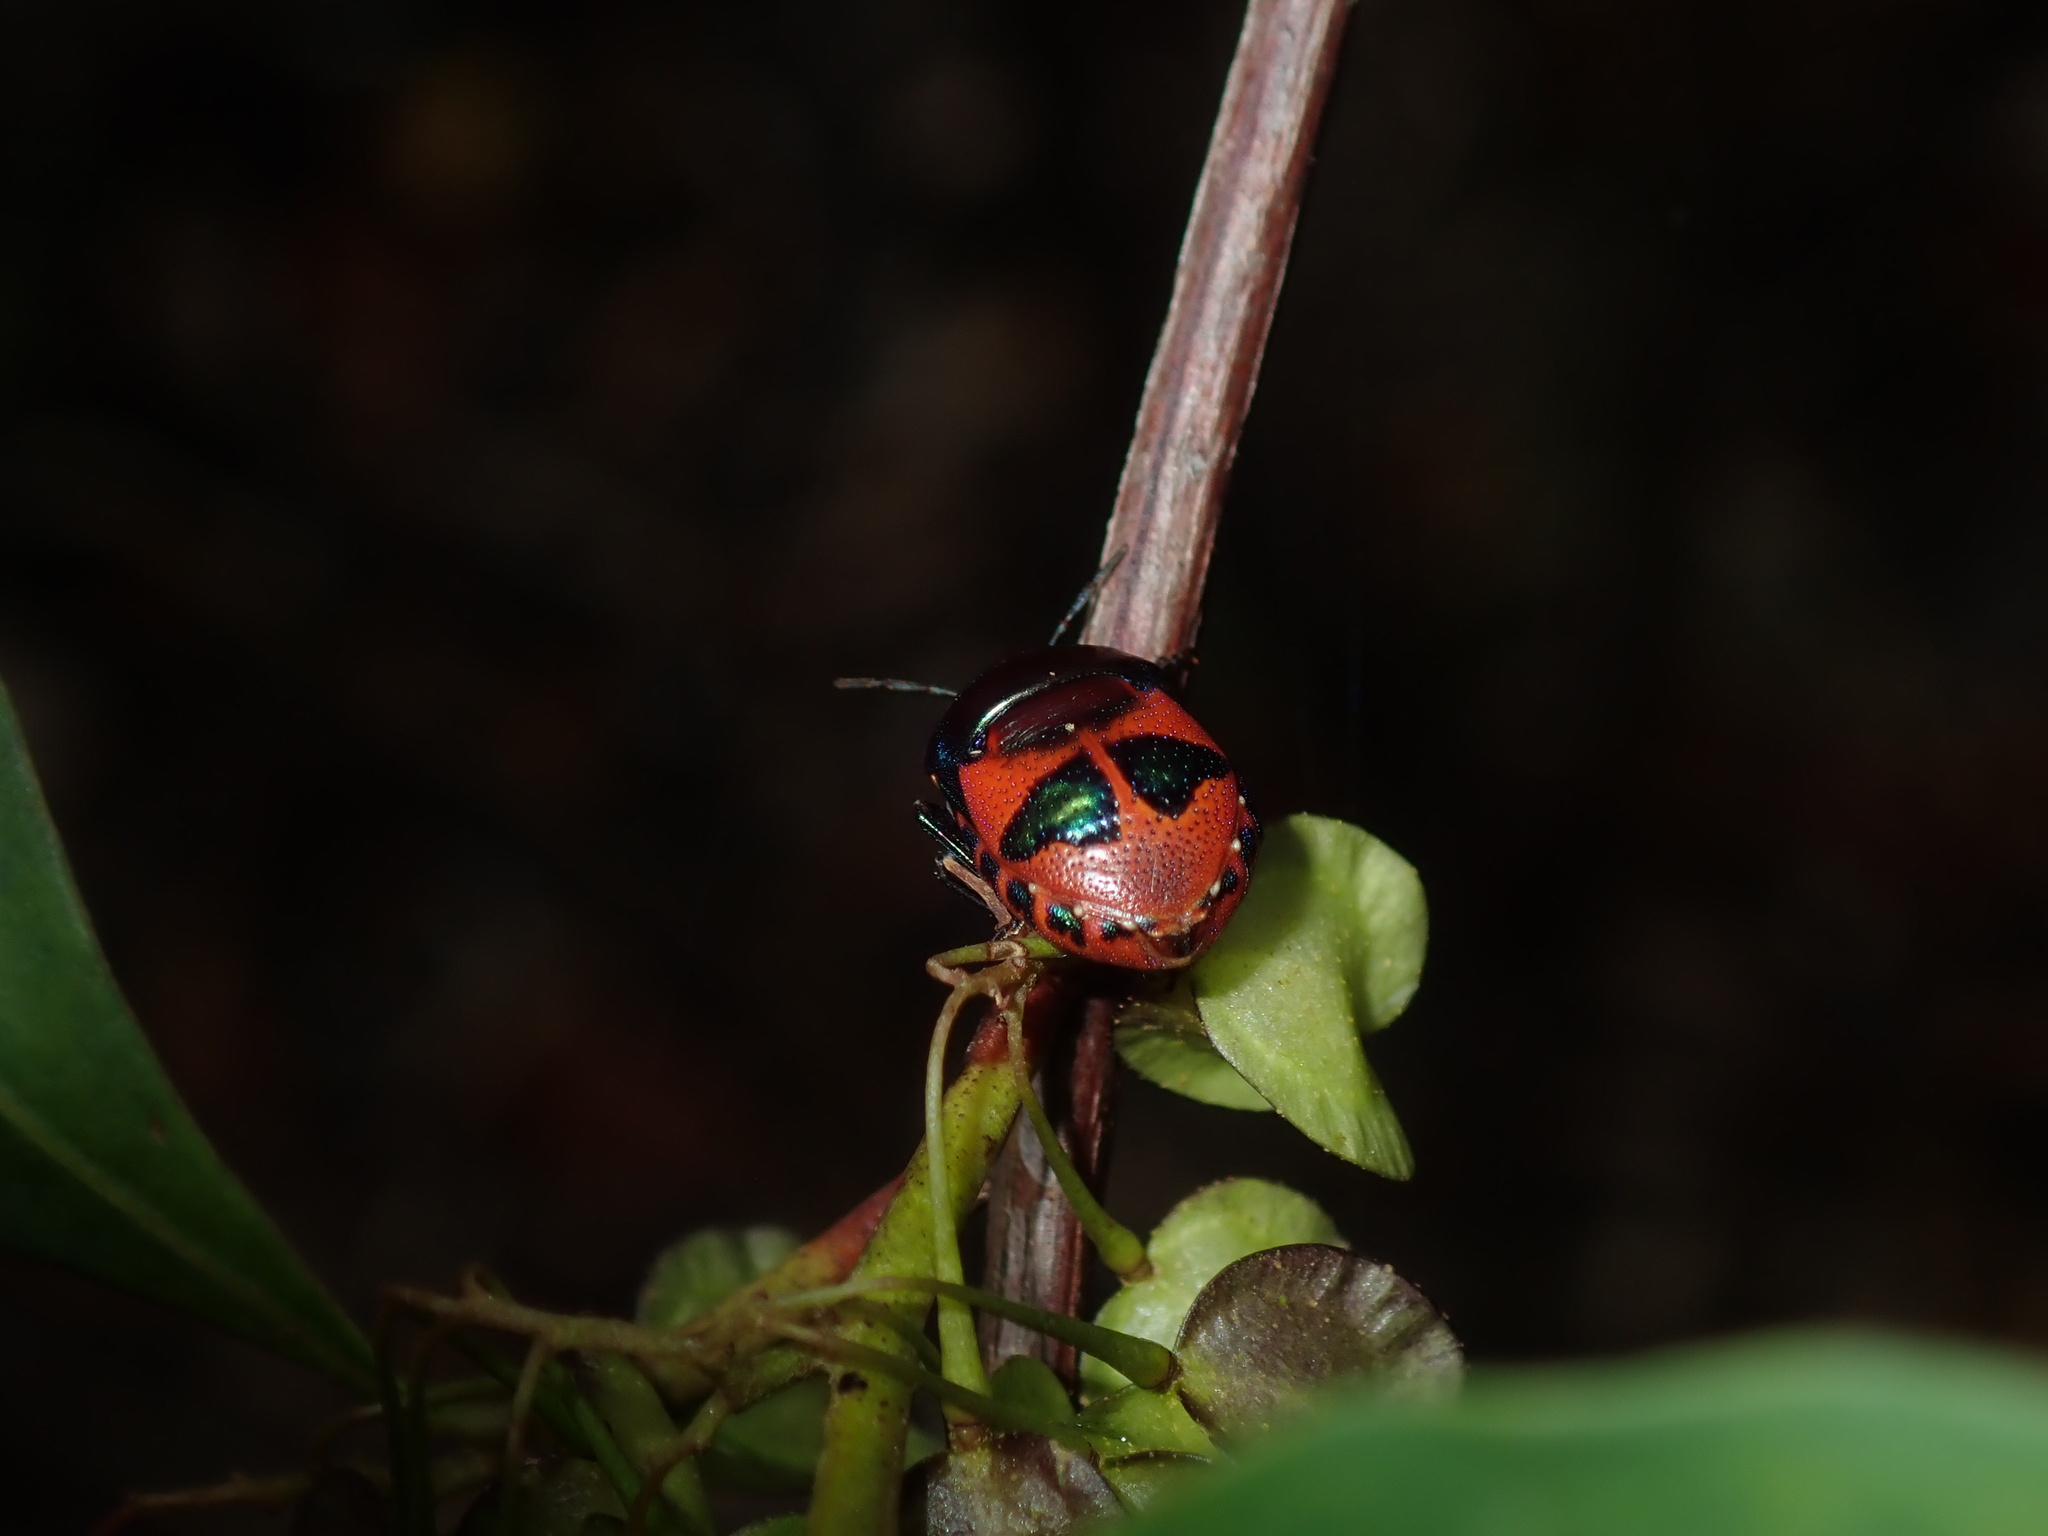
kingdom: Animalia
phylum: Arthropoda
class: Insecta
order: Hemiptera
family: Scutelleridae
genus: Choerocoris
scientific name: Choerocoris paganus
